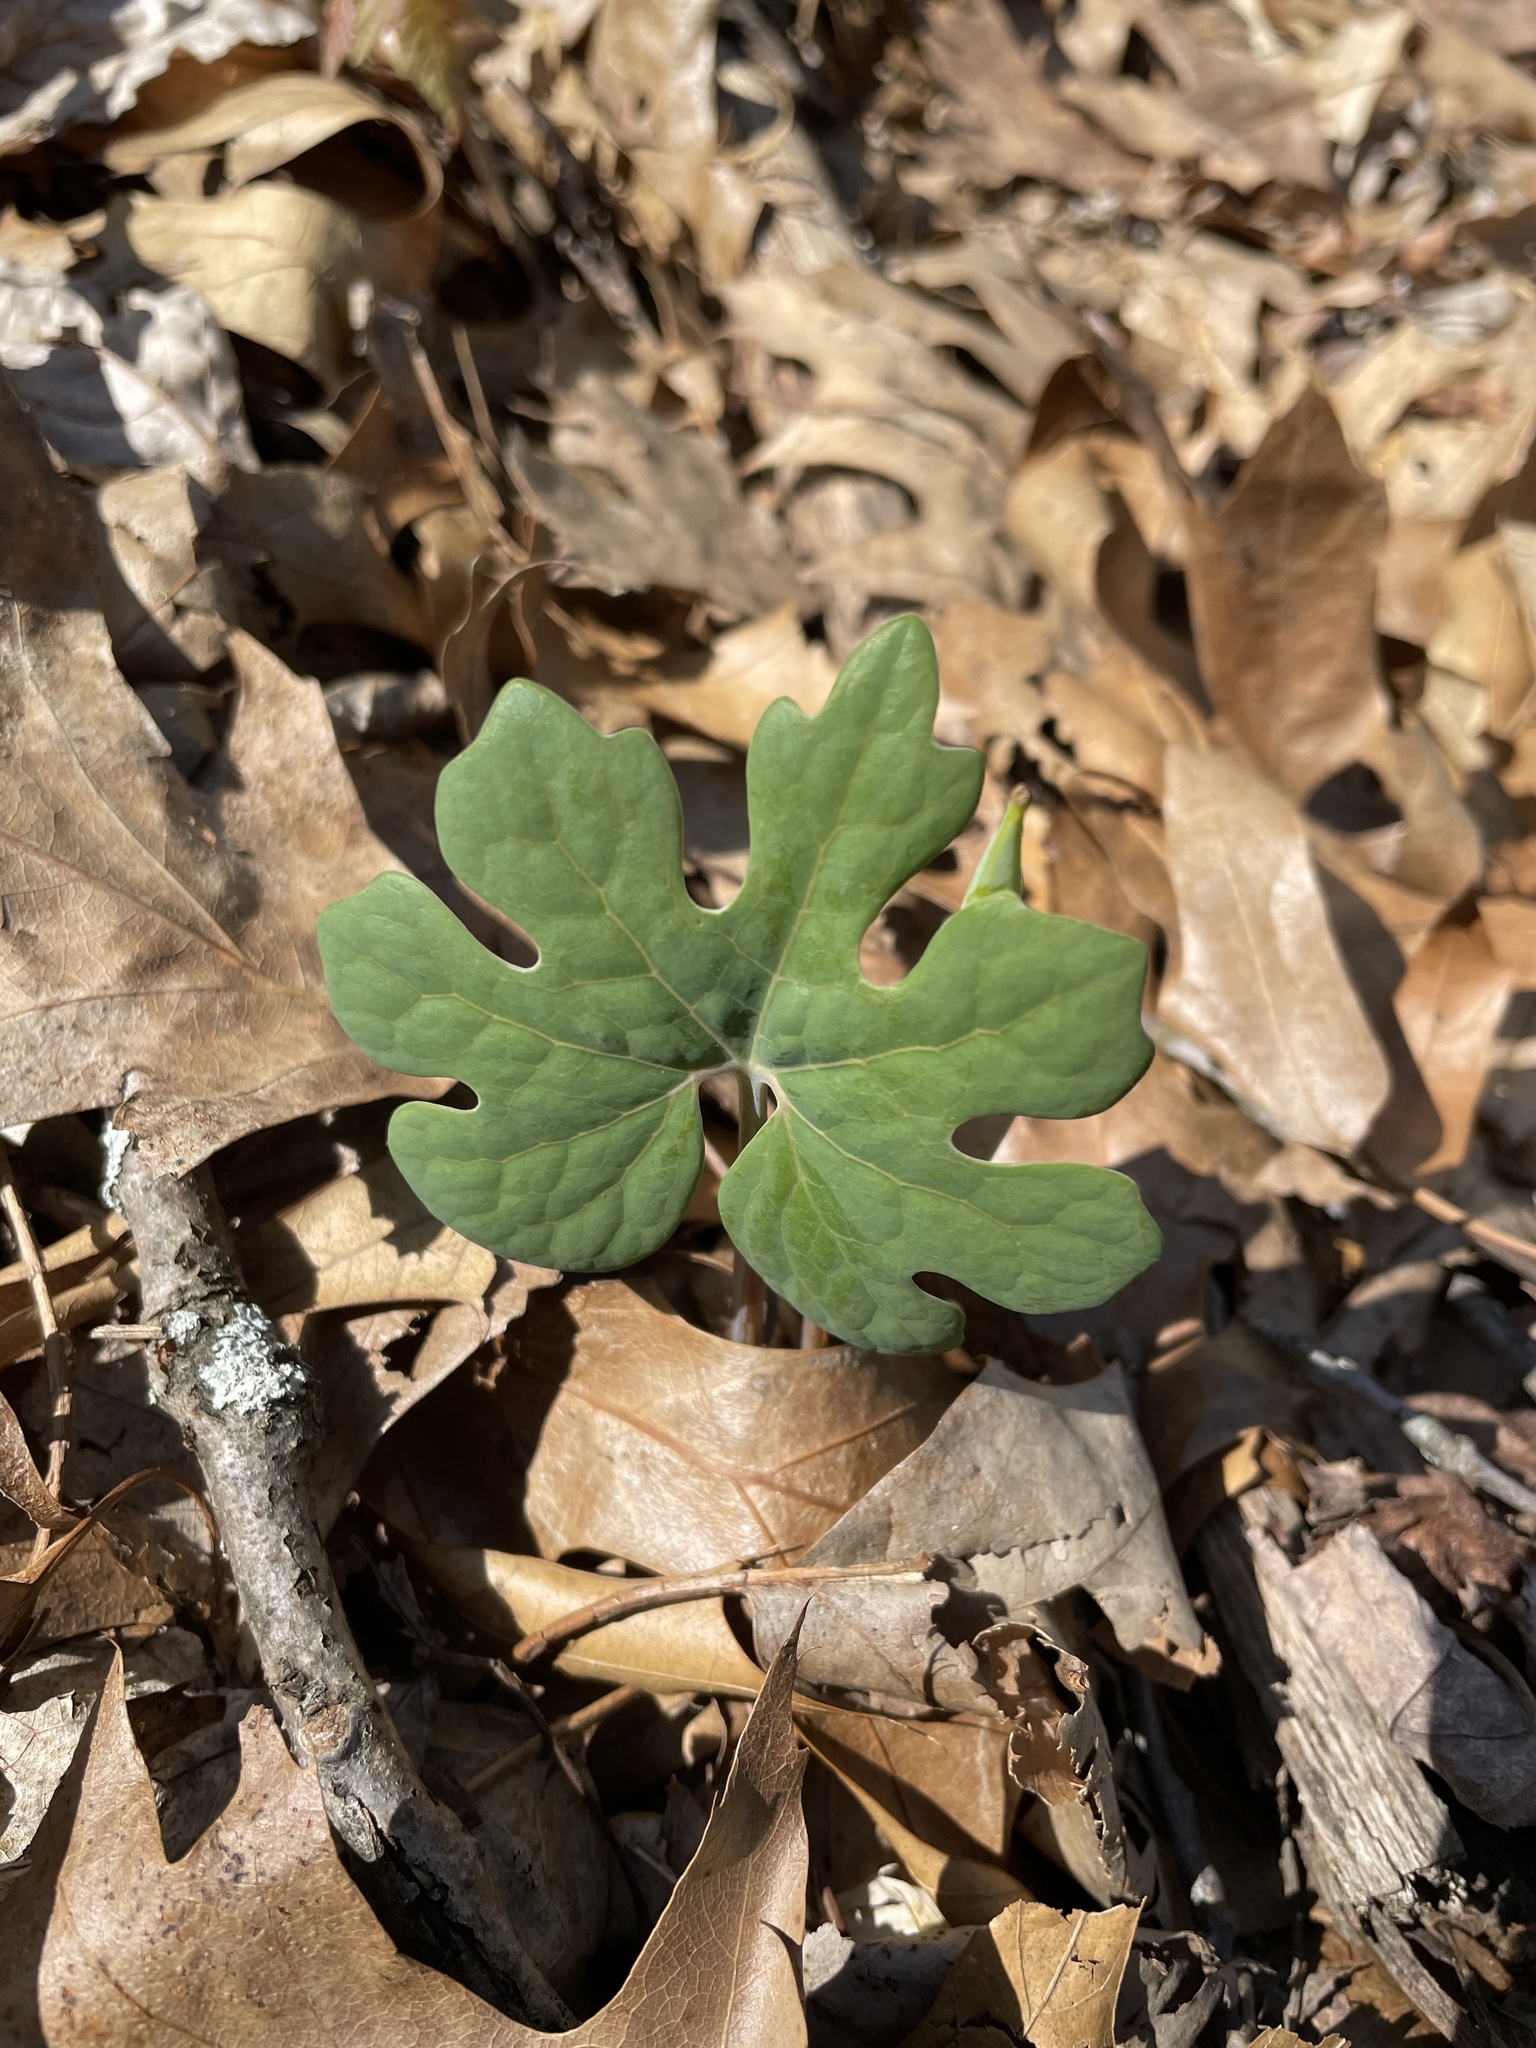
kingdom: Plantae
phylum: Tracheophyta
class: Magnoliopsida
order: Ranunculales
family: Papaveraceae
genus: Sanguinaria
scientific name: Sanguinaria canadensis
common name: Bloodroot
